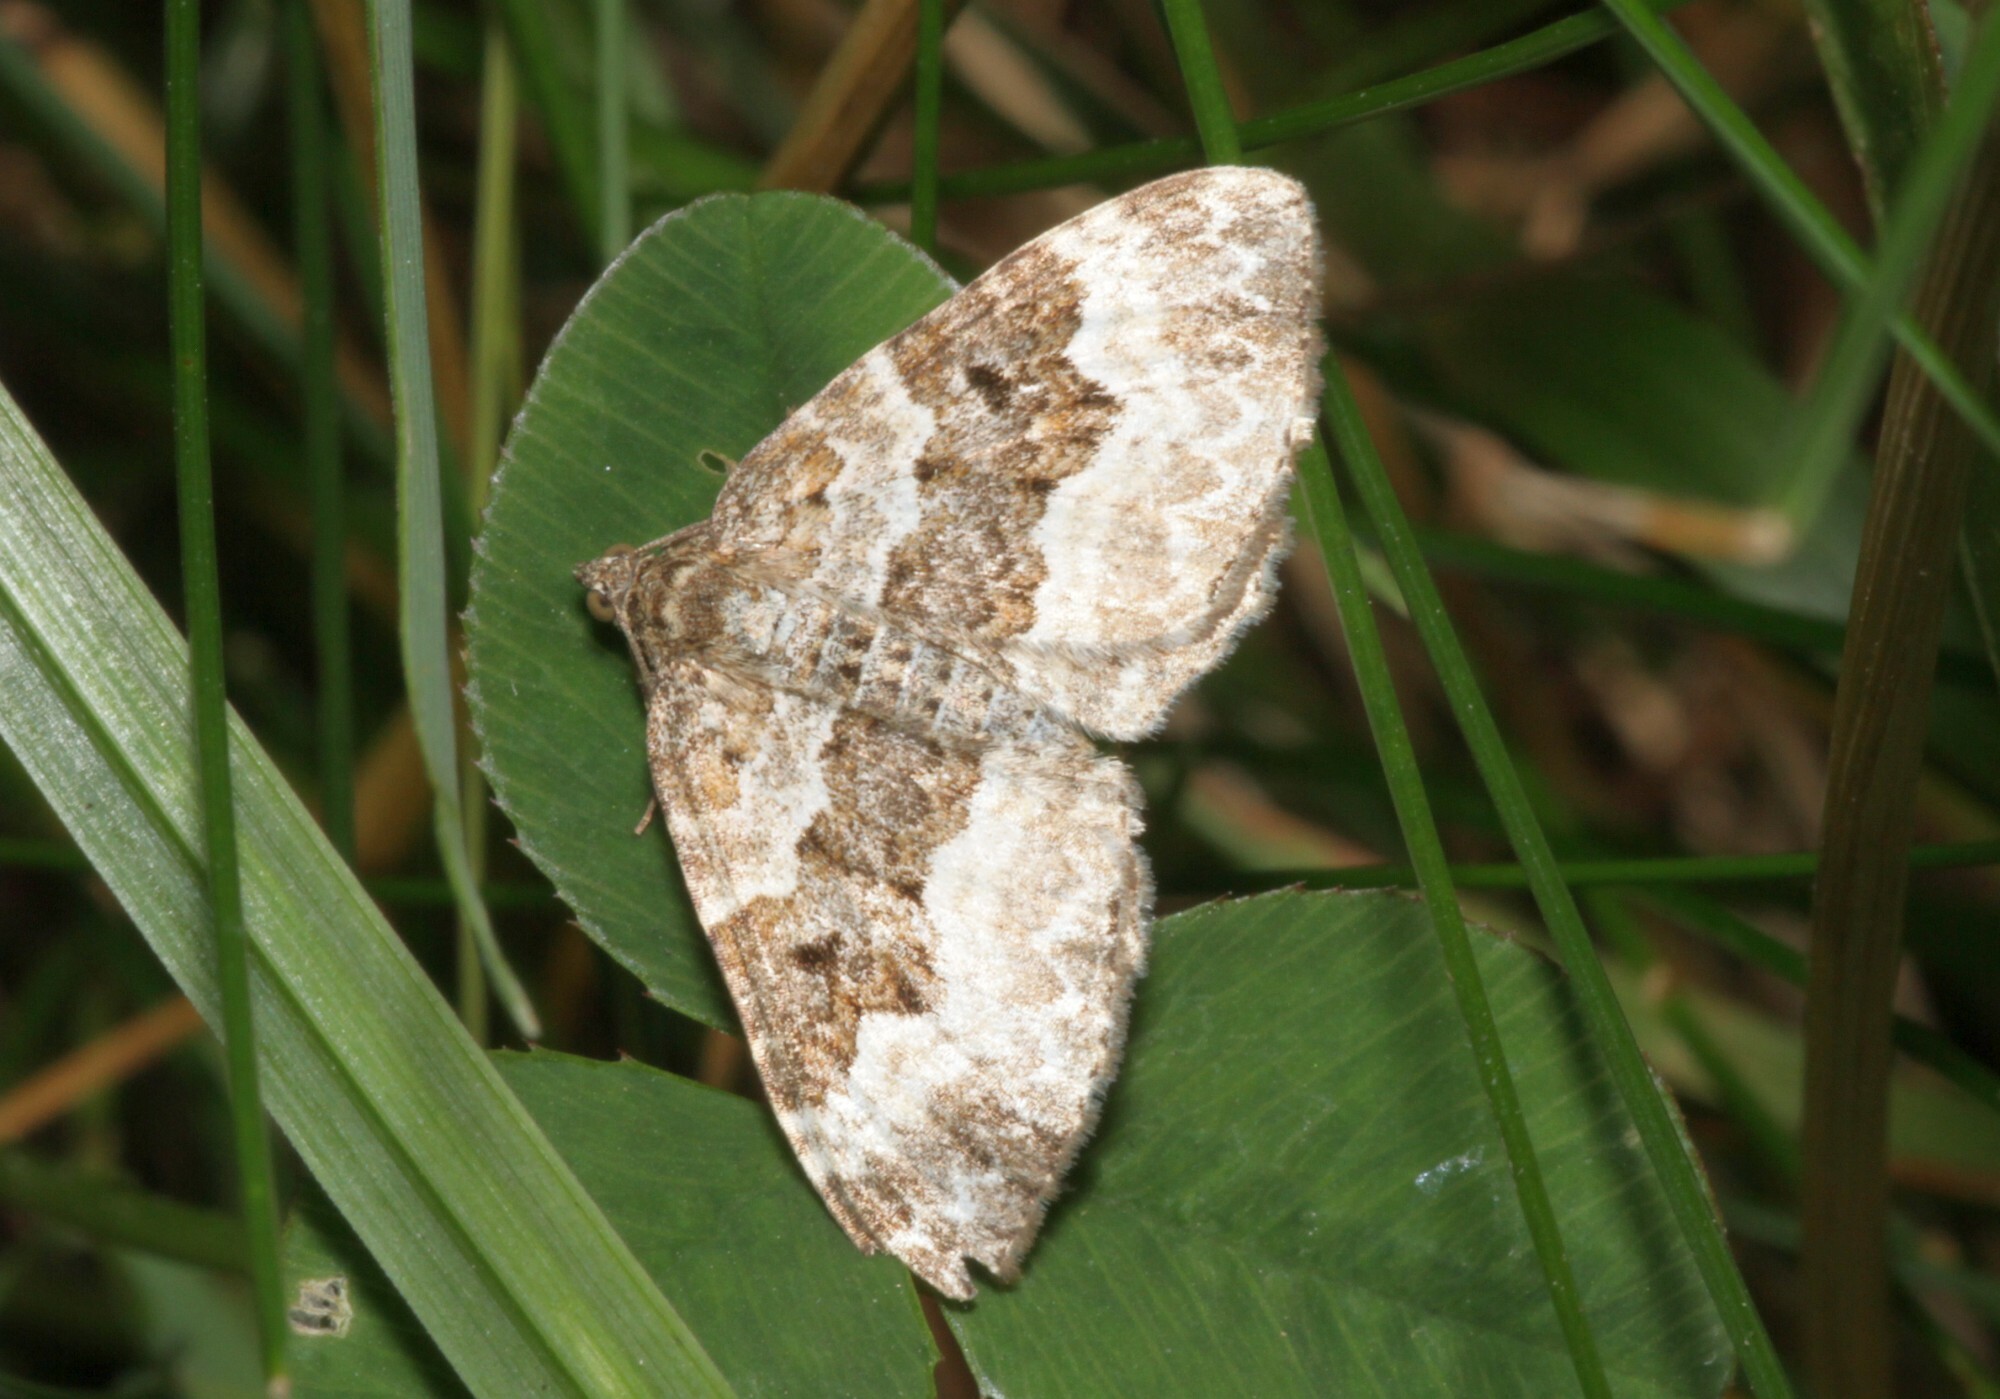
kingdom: Animalia
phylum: Arthropoda
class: Insecta
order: Lepidoptera
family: Geometridae
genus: Epirrhoe
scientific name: Epirrhoe alternata
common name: Common carpet
